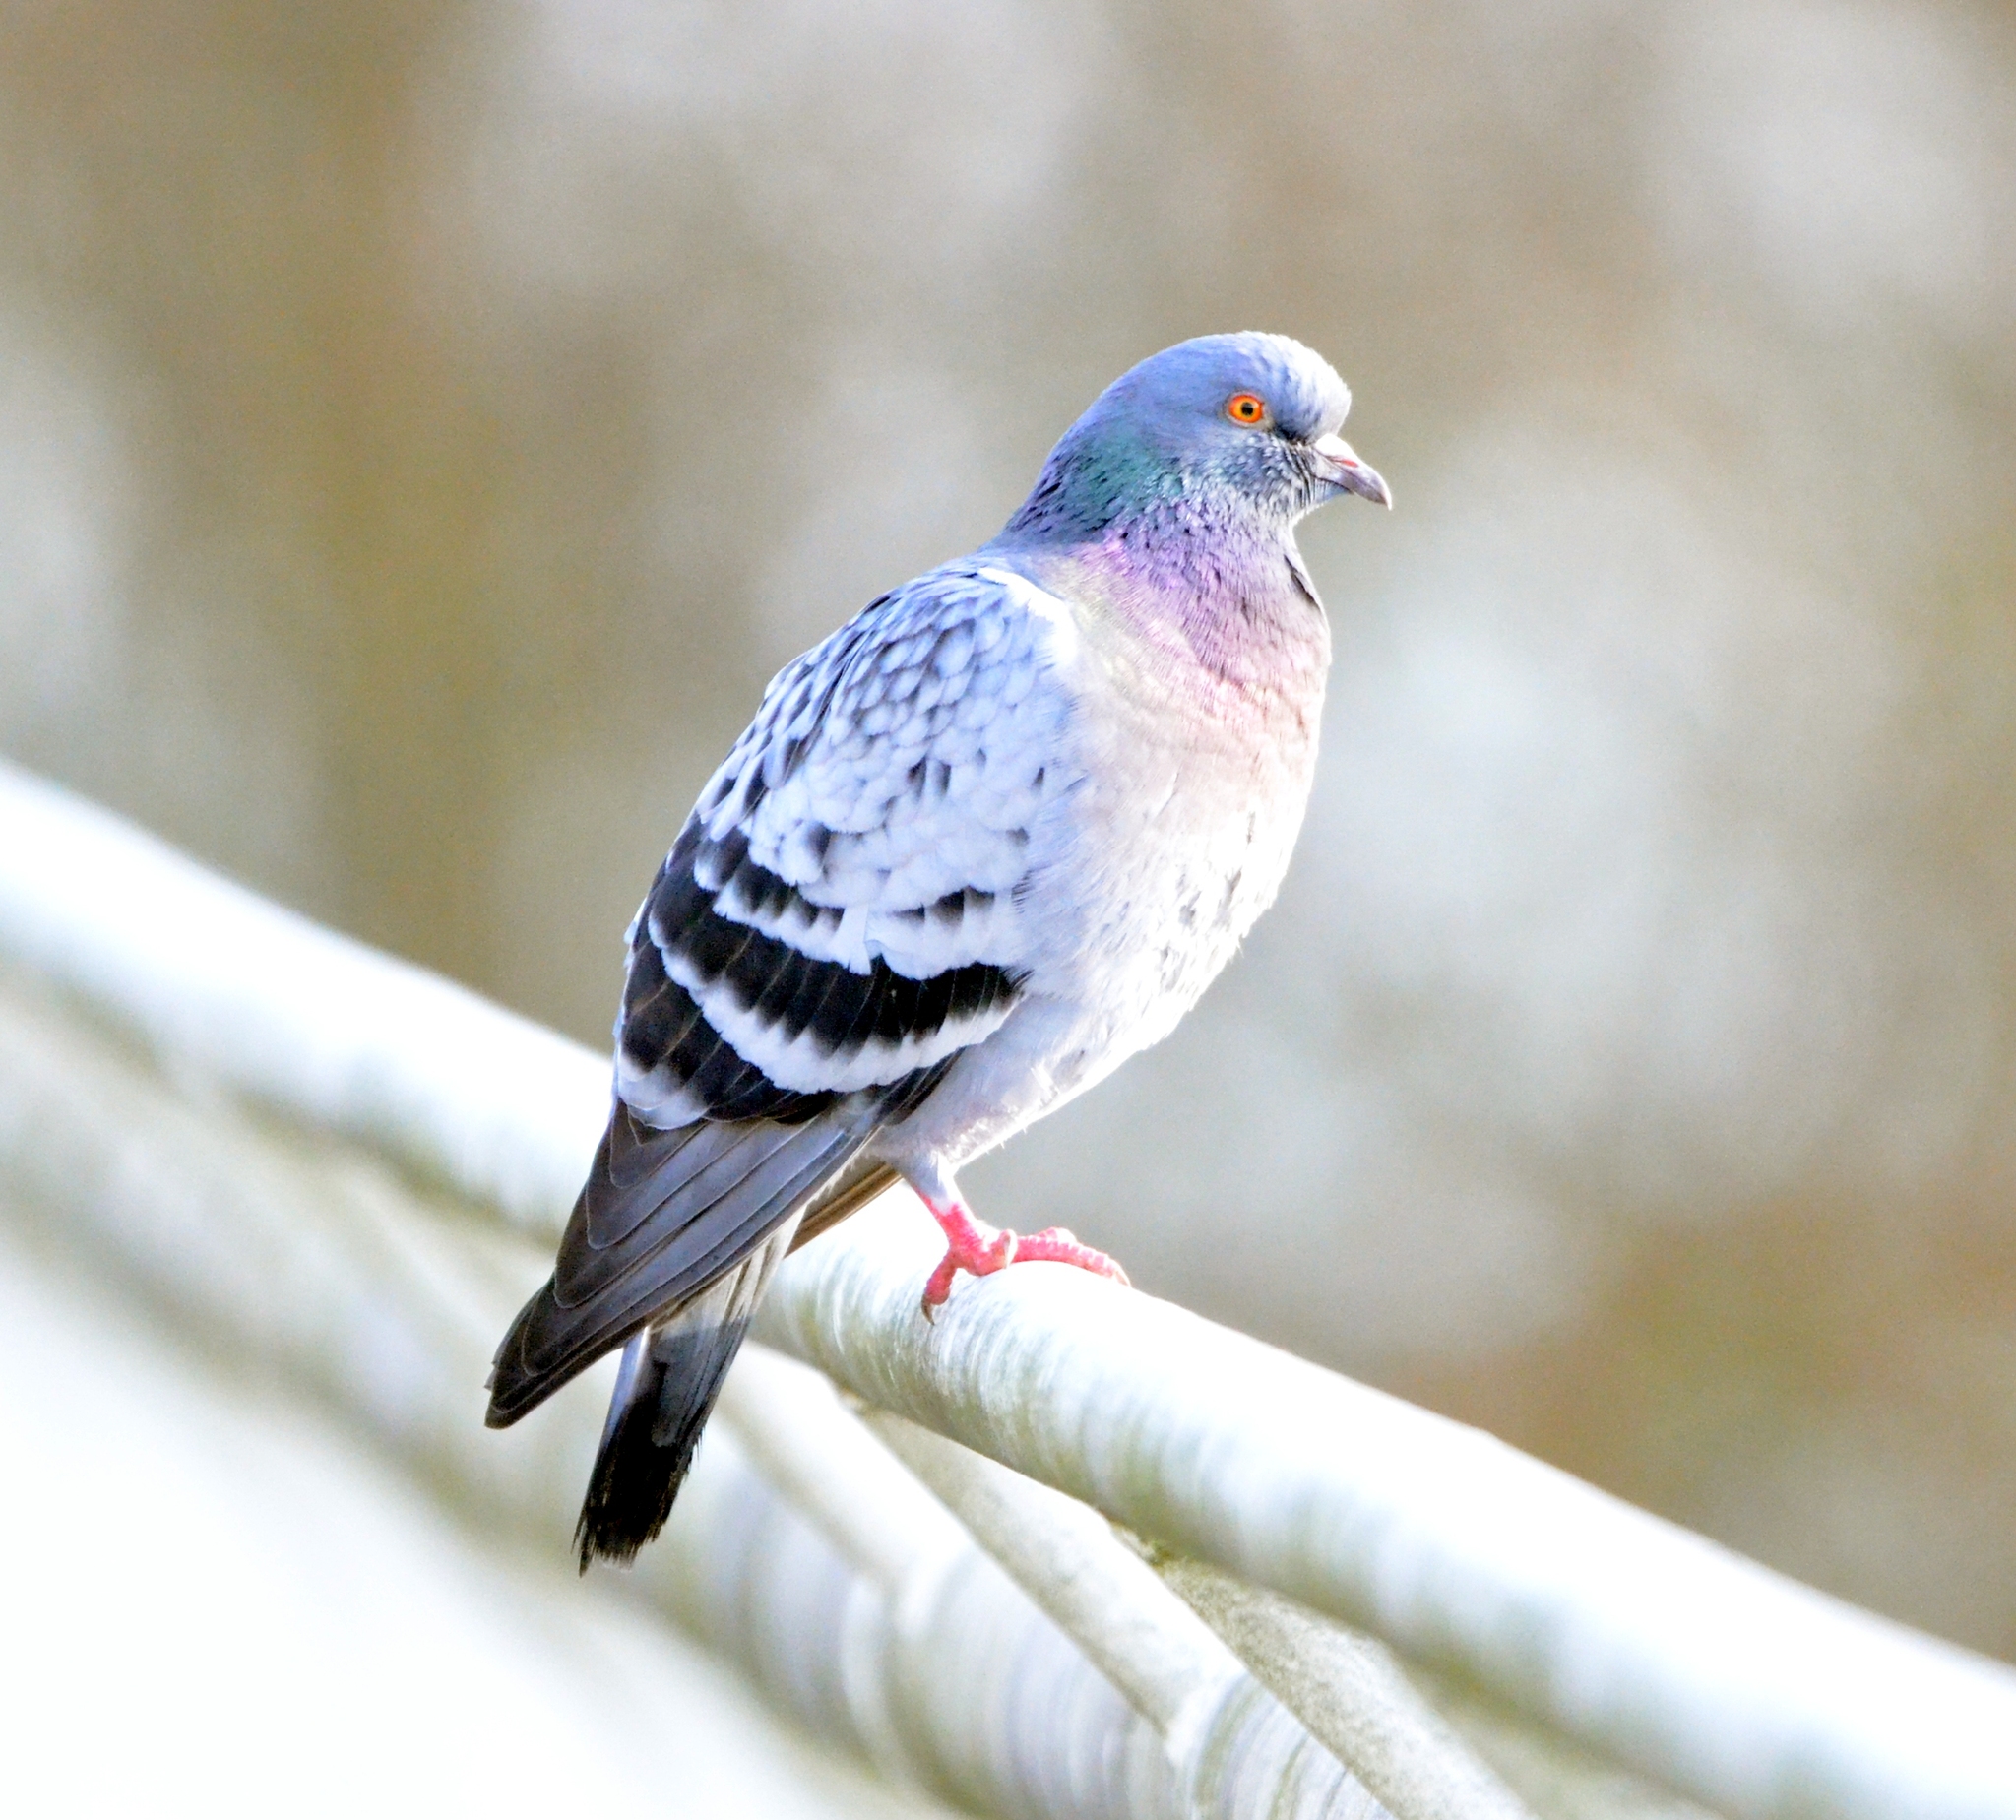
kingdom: Animalia
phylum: Chordata
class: Aves
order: Columbiformes
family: Columbidae
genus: Columba
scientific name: Columba livia
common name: Rock pigeon
